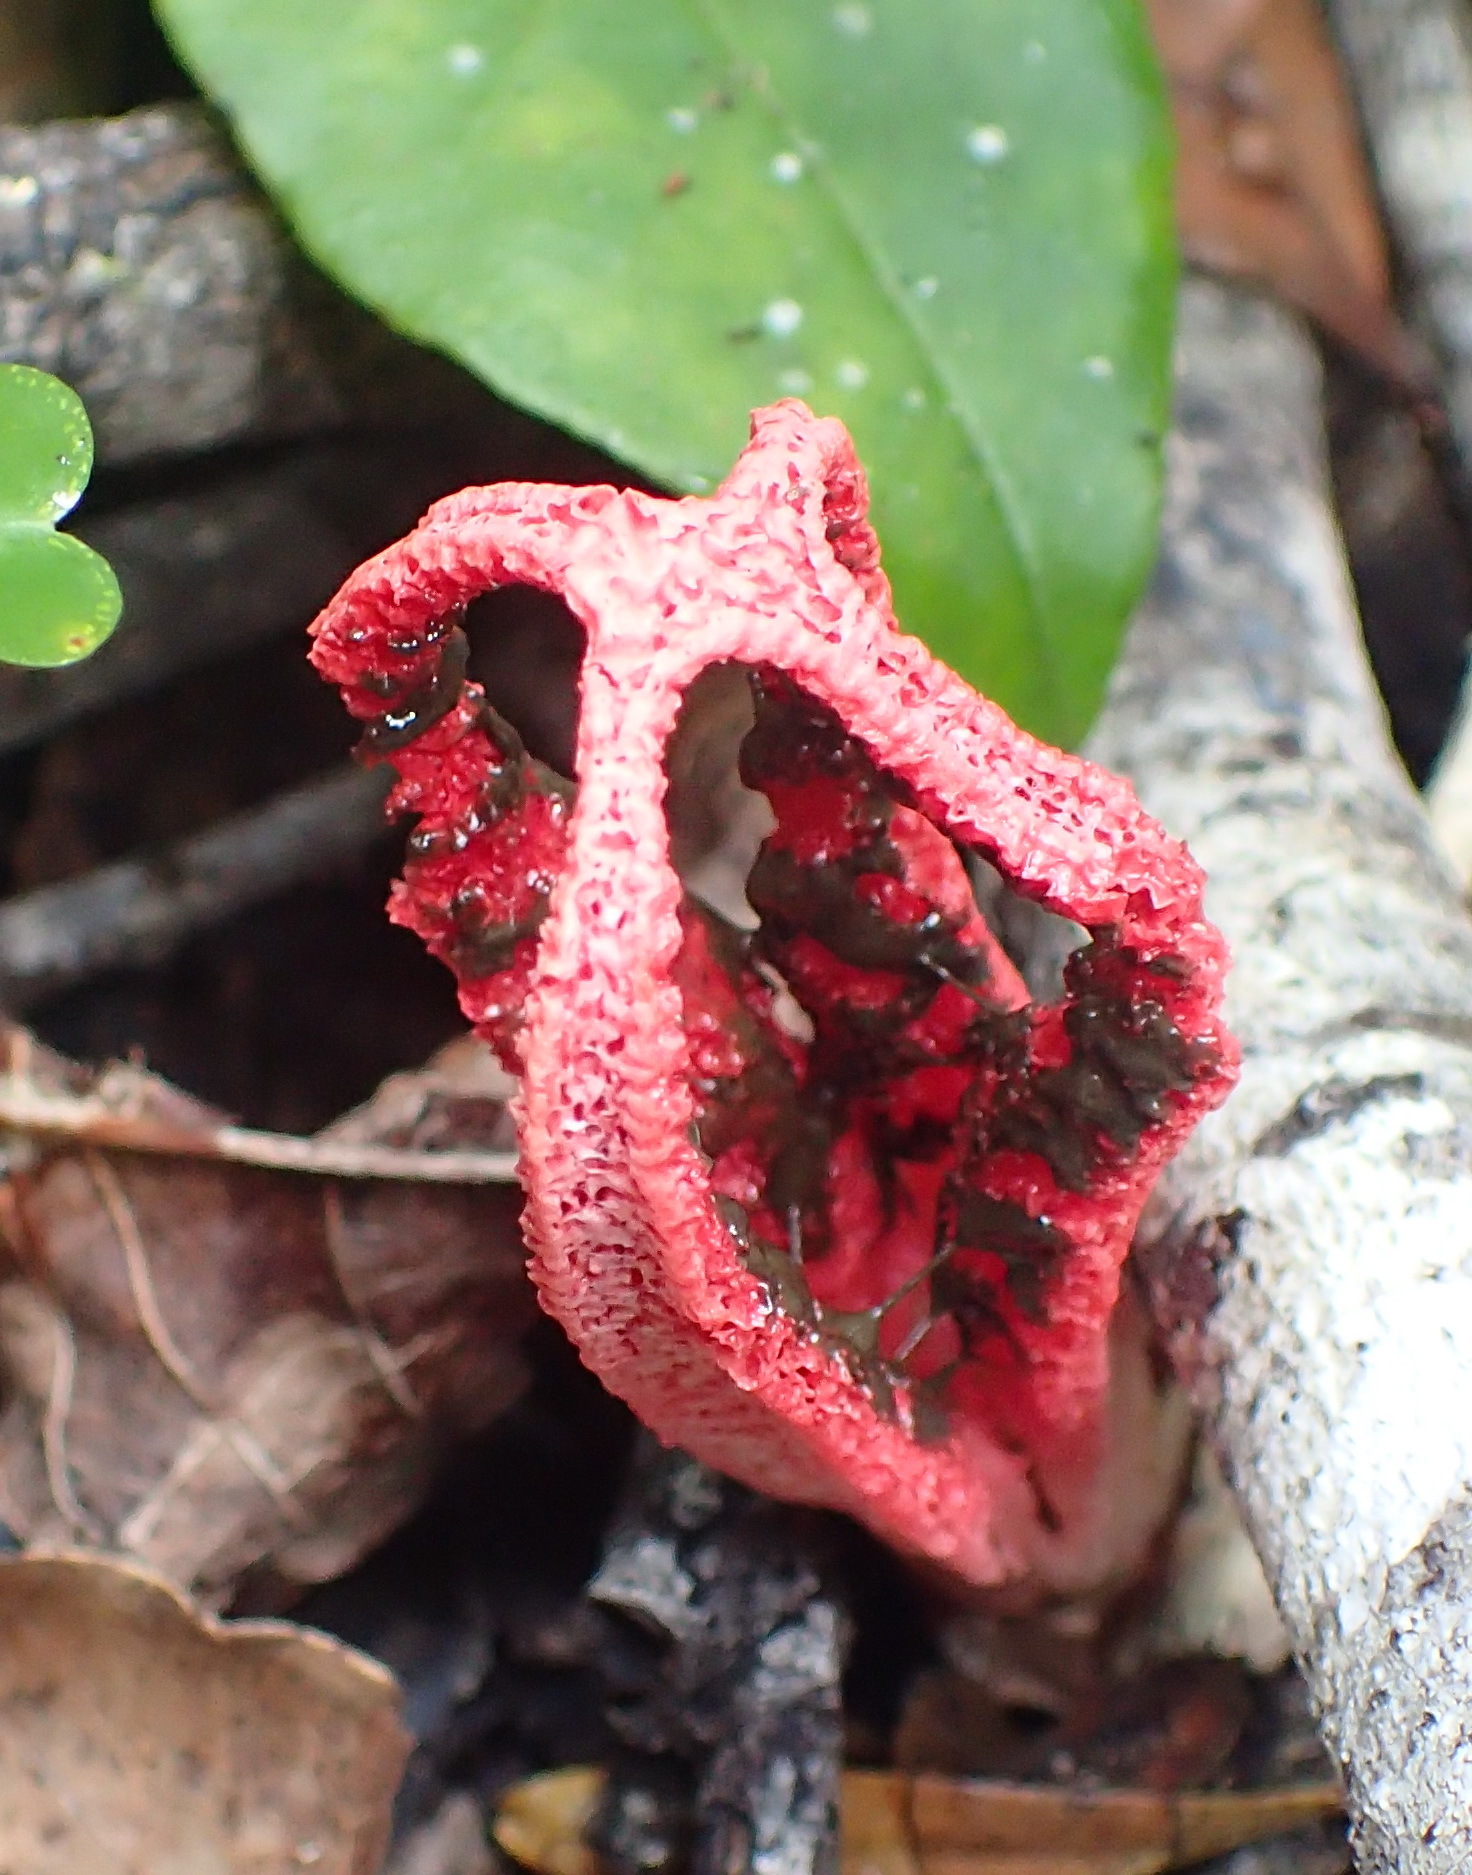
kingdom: Fungi
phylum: Basidiomycota
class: Agaricomycetes
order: Phallales
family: Phallaceae
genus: Clathrus
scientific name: Clathrus archeri
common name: Devil's fingers
